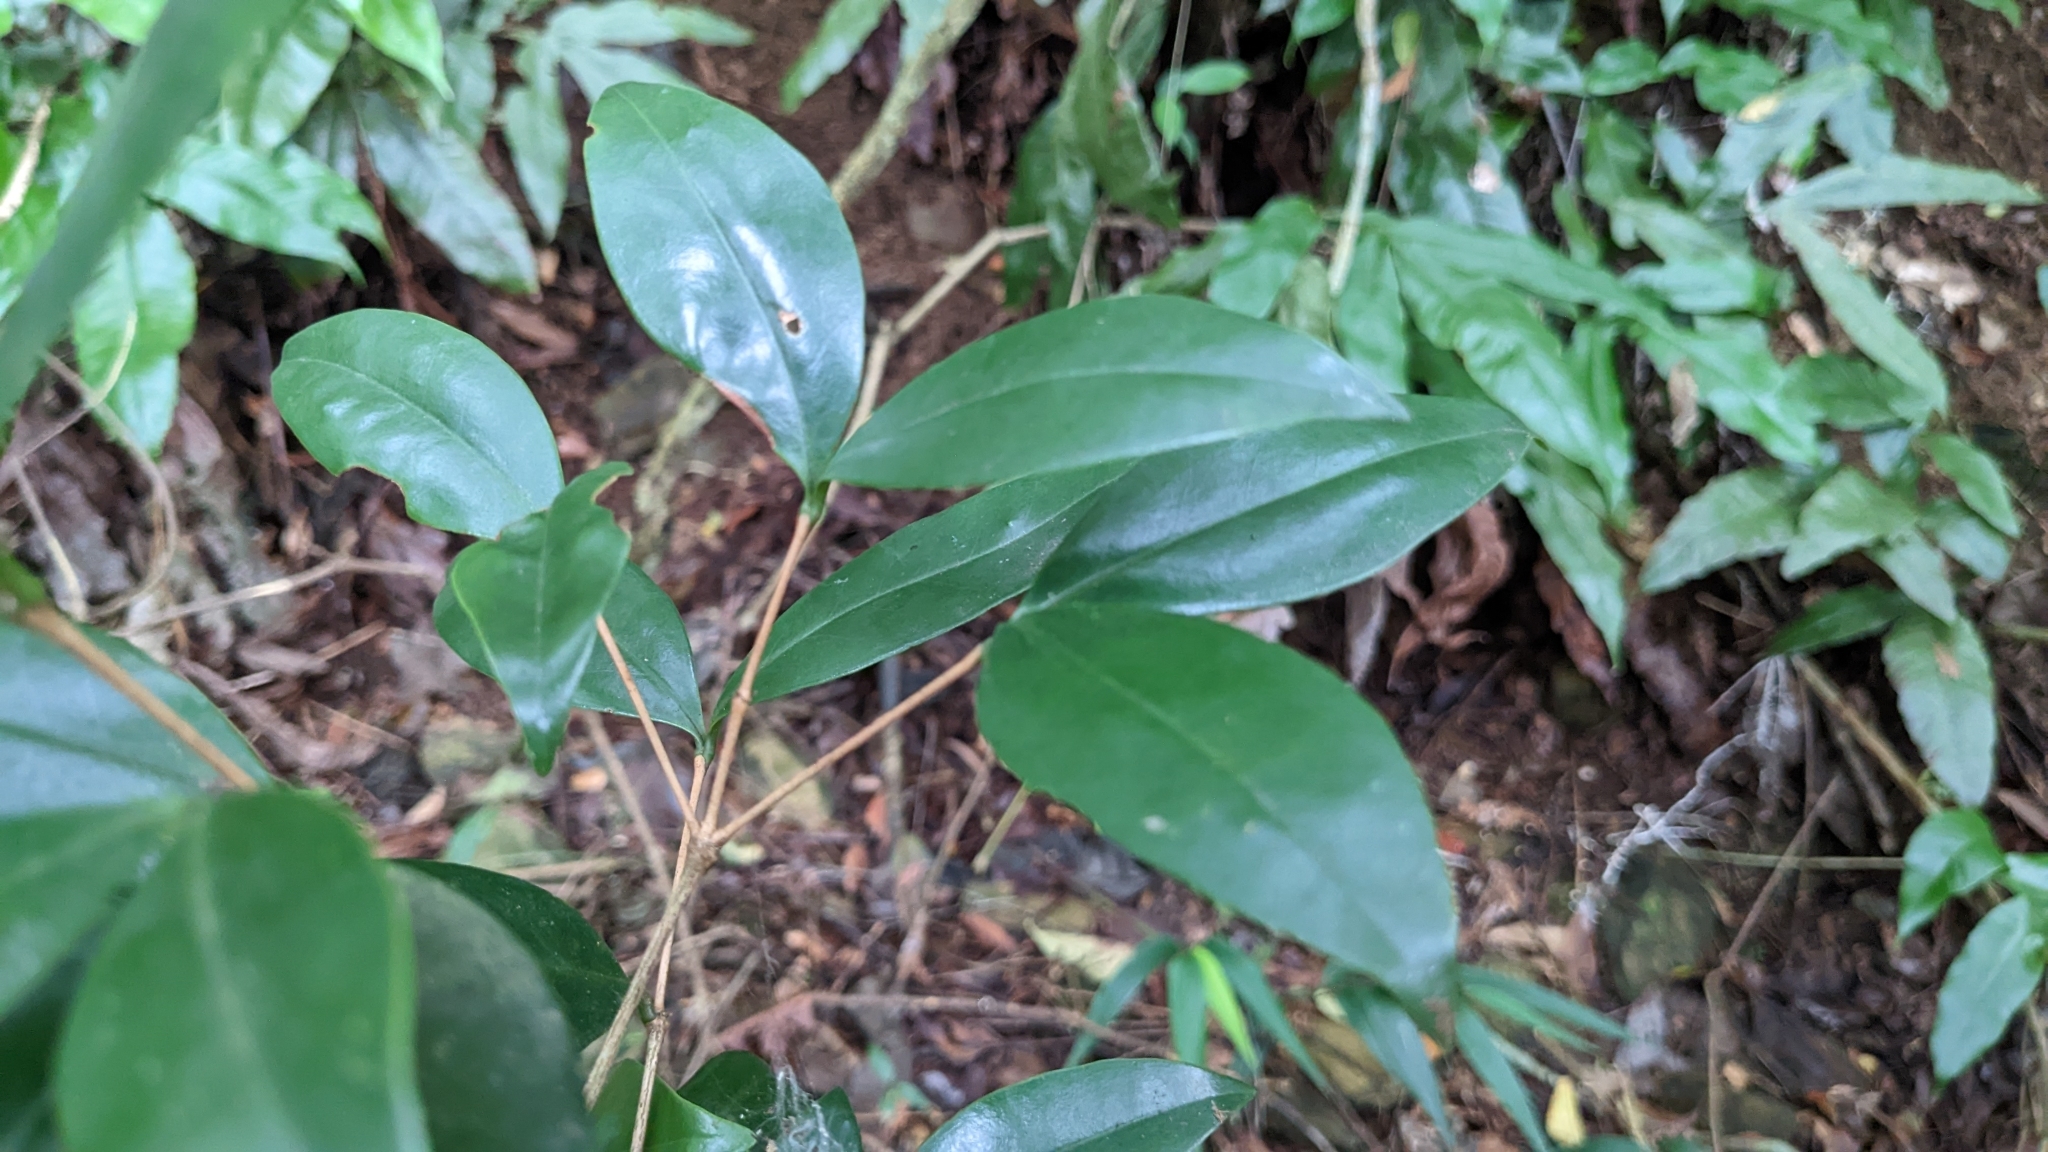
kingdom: Plantae
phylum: Tracheophyta
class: Magnoliopsida
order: Myrtales
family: Melastomataceae
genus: Memecylon
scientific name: Memecylon pendulum
